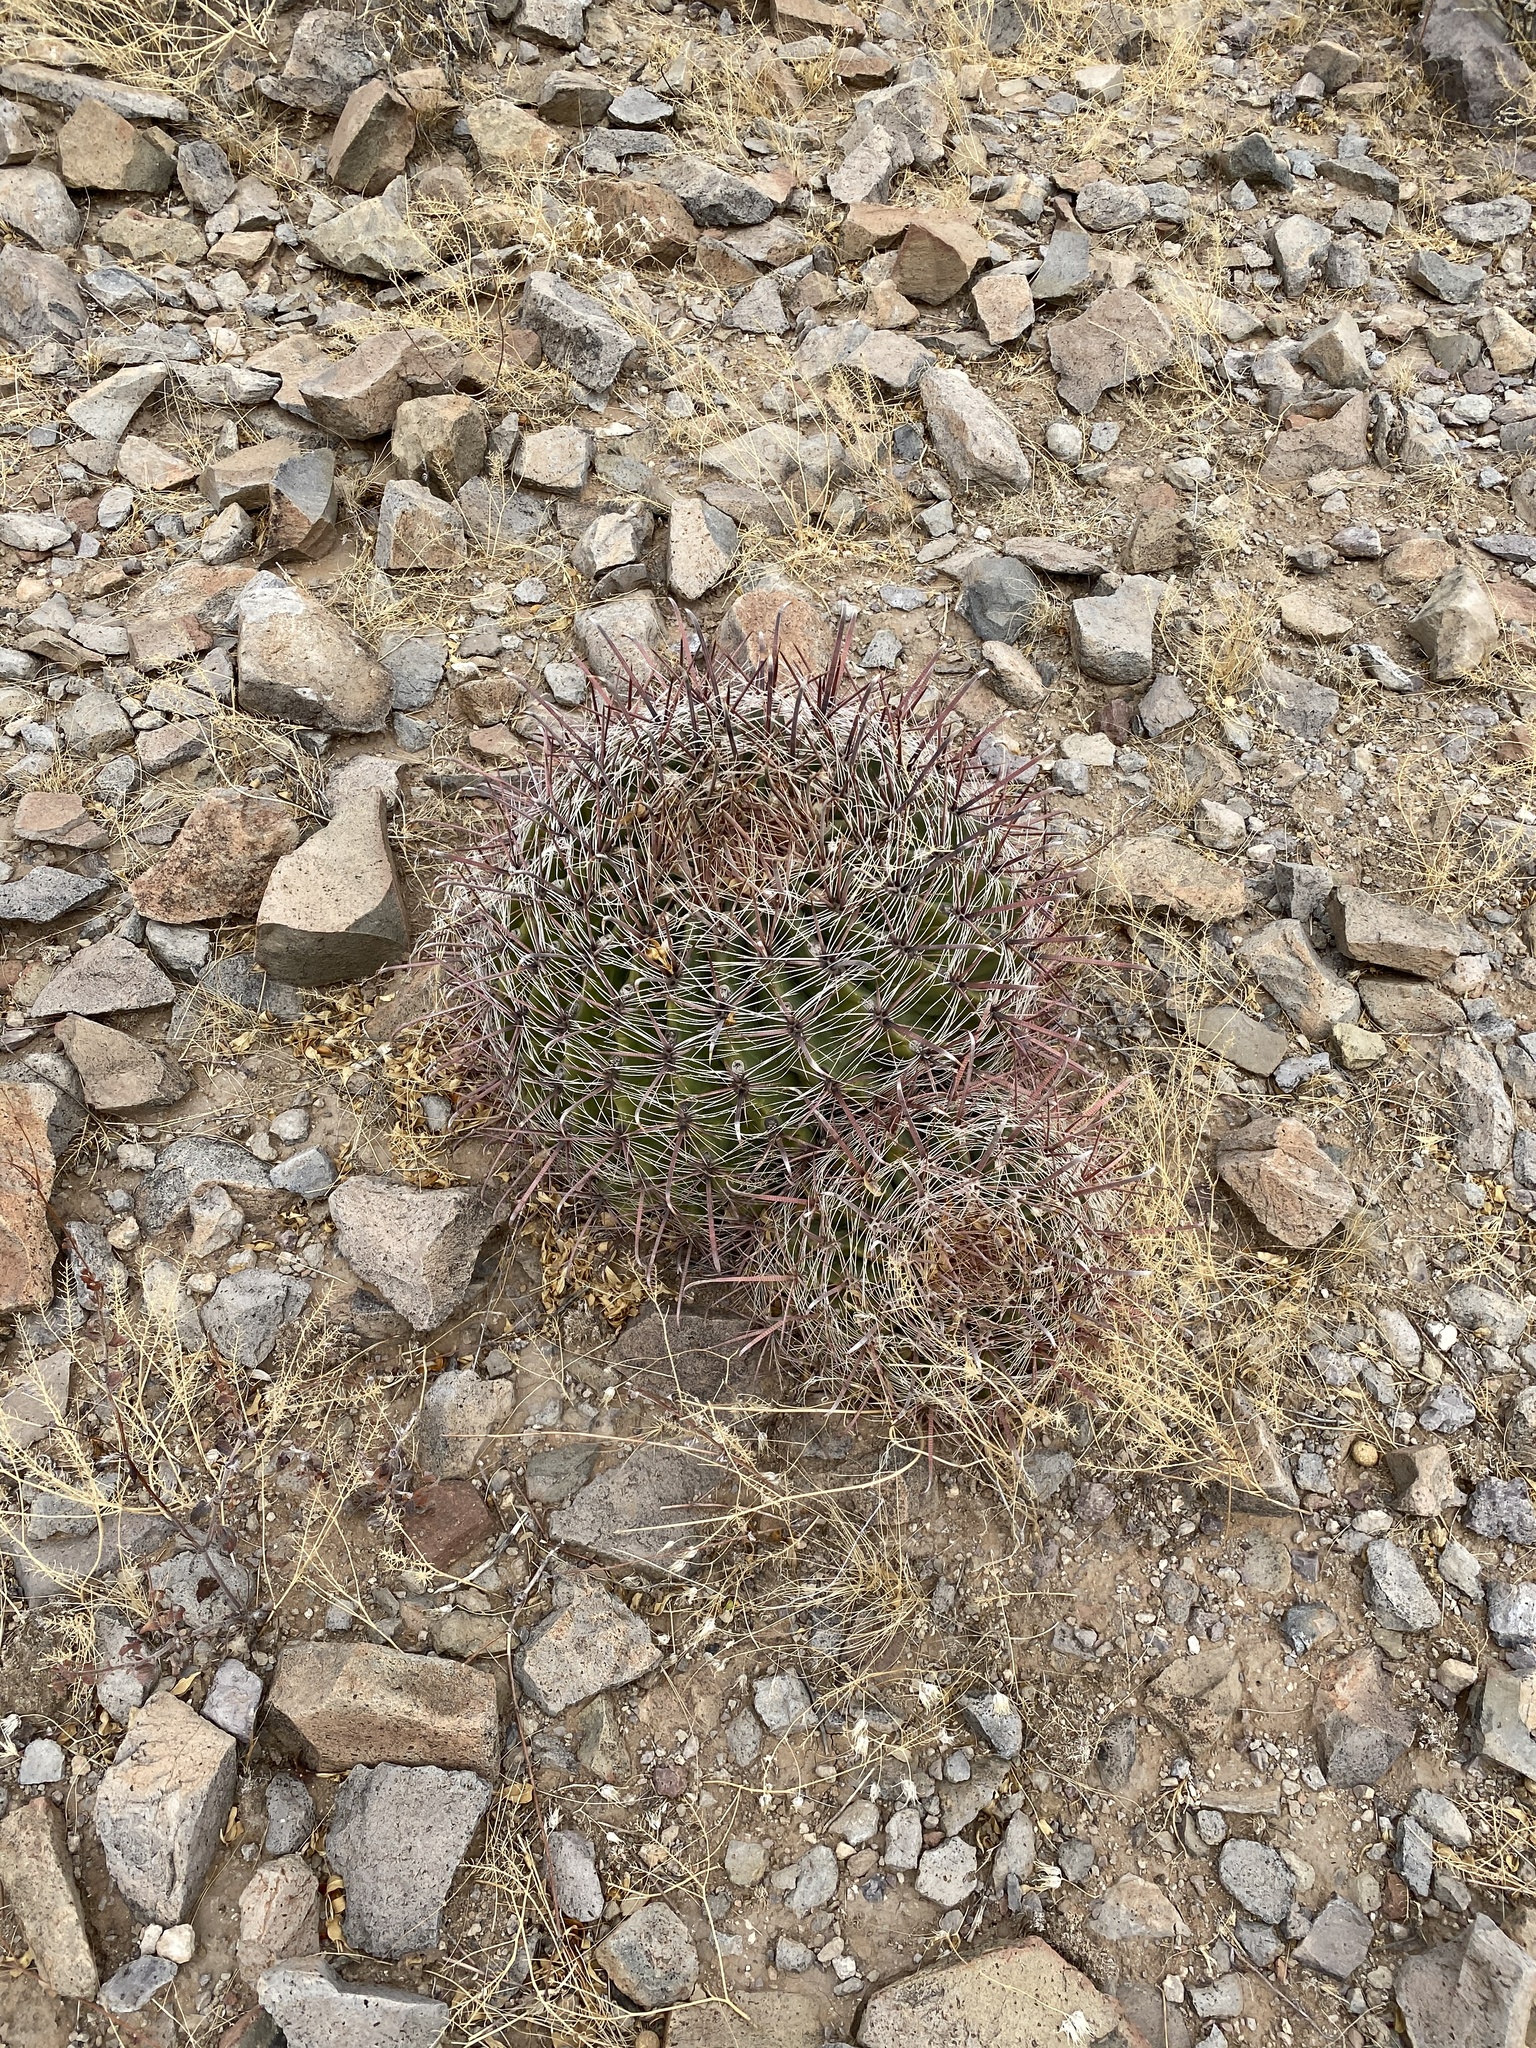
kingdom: Plantae
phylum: Tracheophyta
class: Magnoliopsida
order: Caryophyllales
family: Cactaceae
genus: Ferocactus
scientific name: Ferocactus wislizeni
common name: Candy barrel cactus
